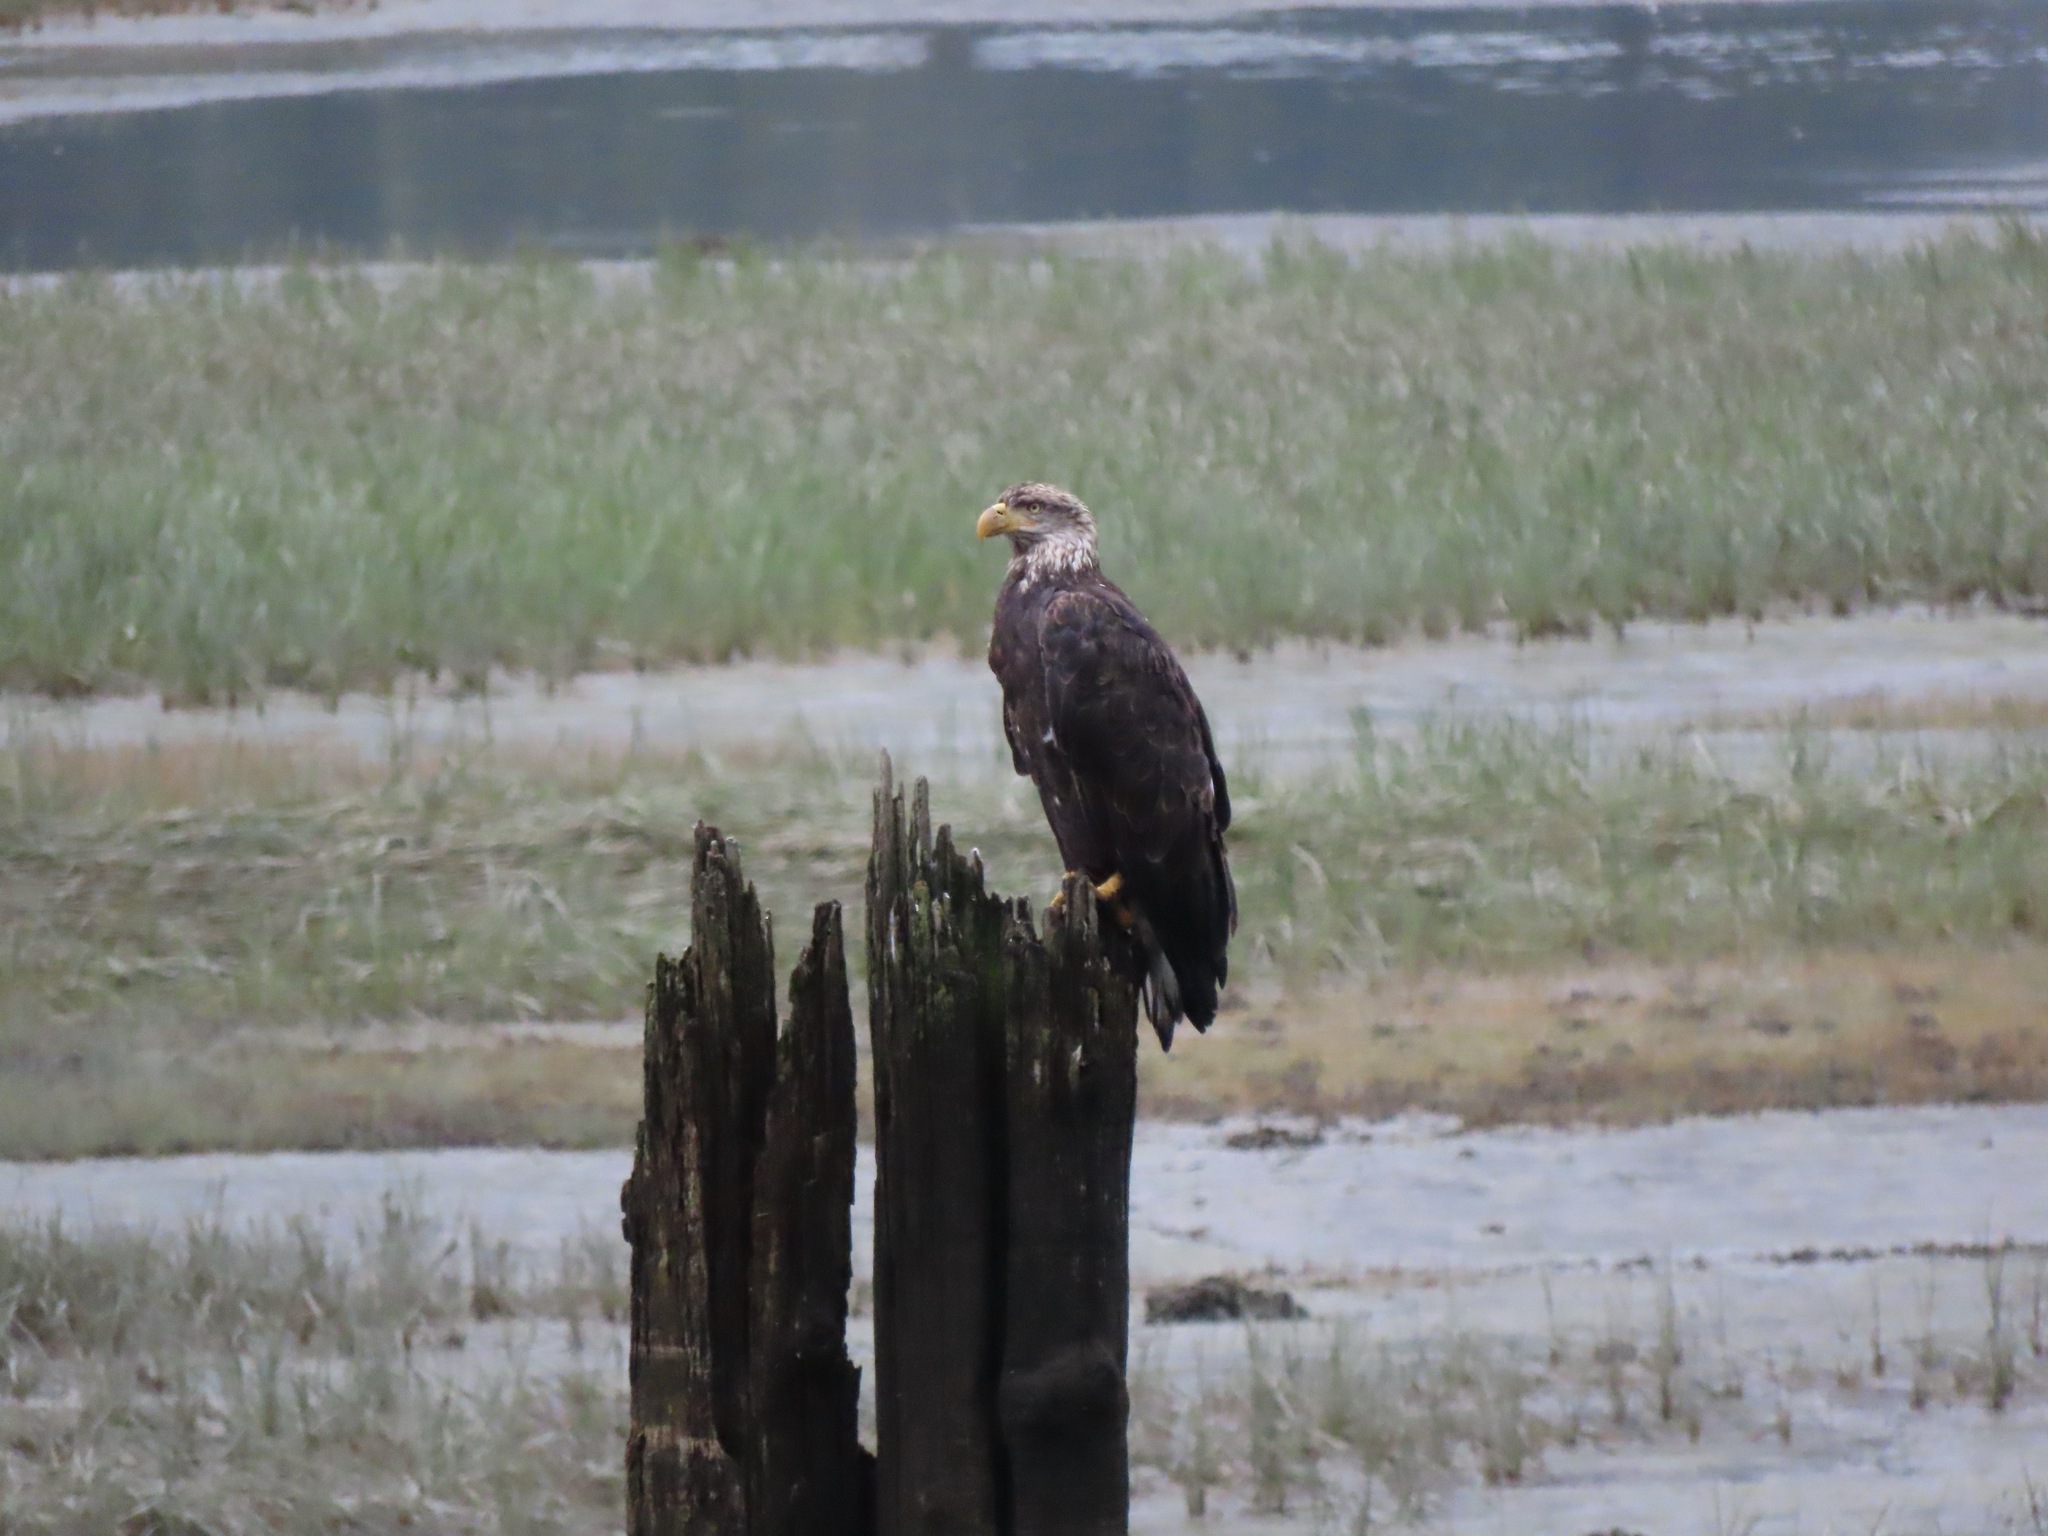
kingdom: Animalia
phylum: Chordata
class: Aves
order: Accipitriformes
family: Accipitridae
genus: Haliaeetus
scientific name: Haliaeetus leucocephalus
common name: Bald eagle
